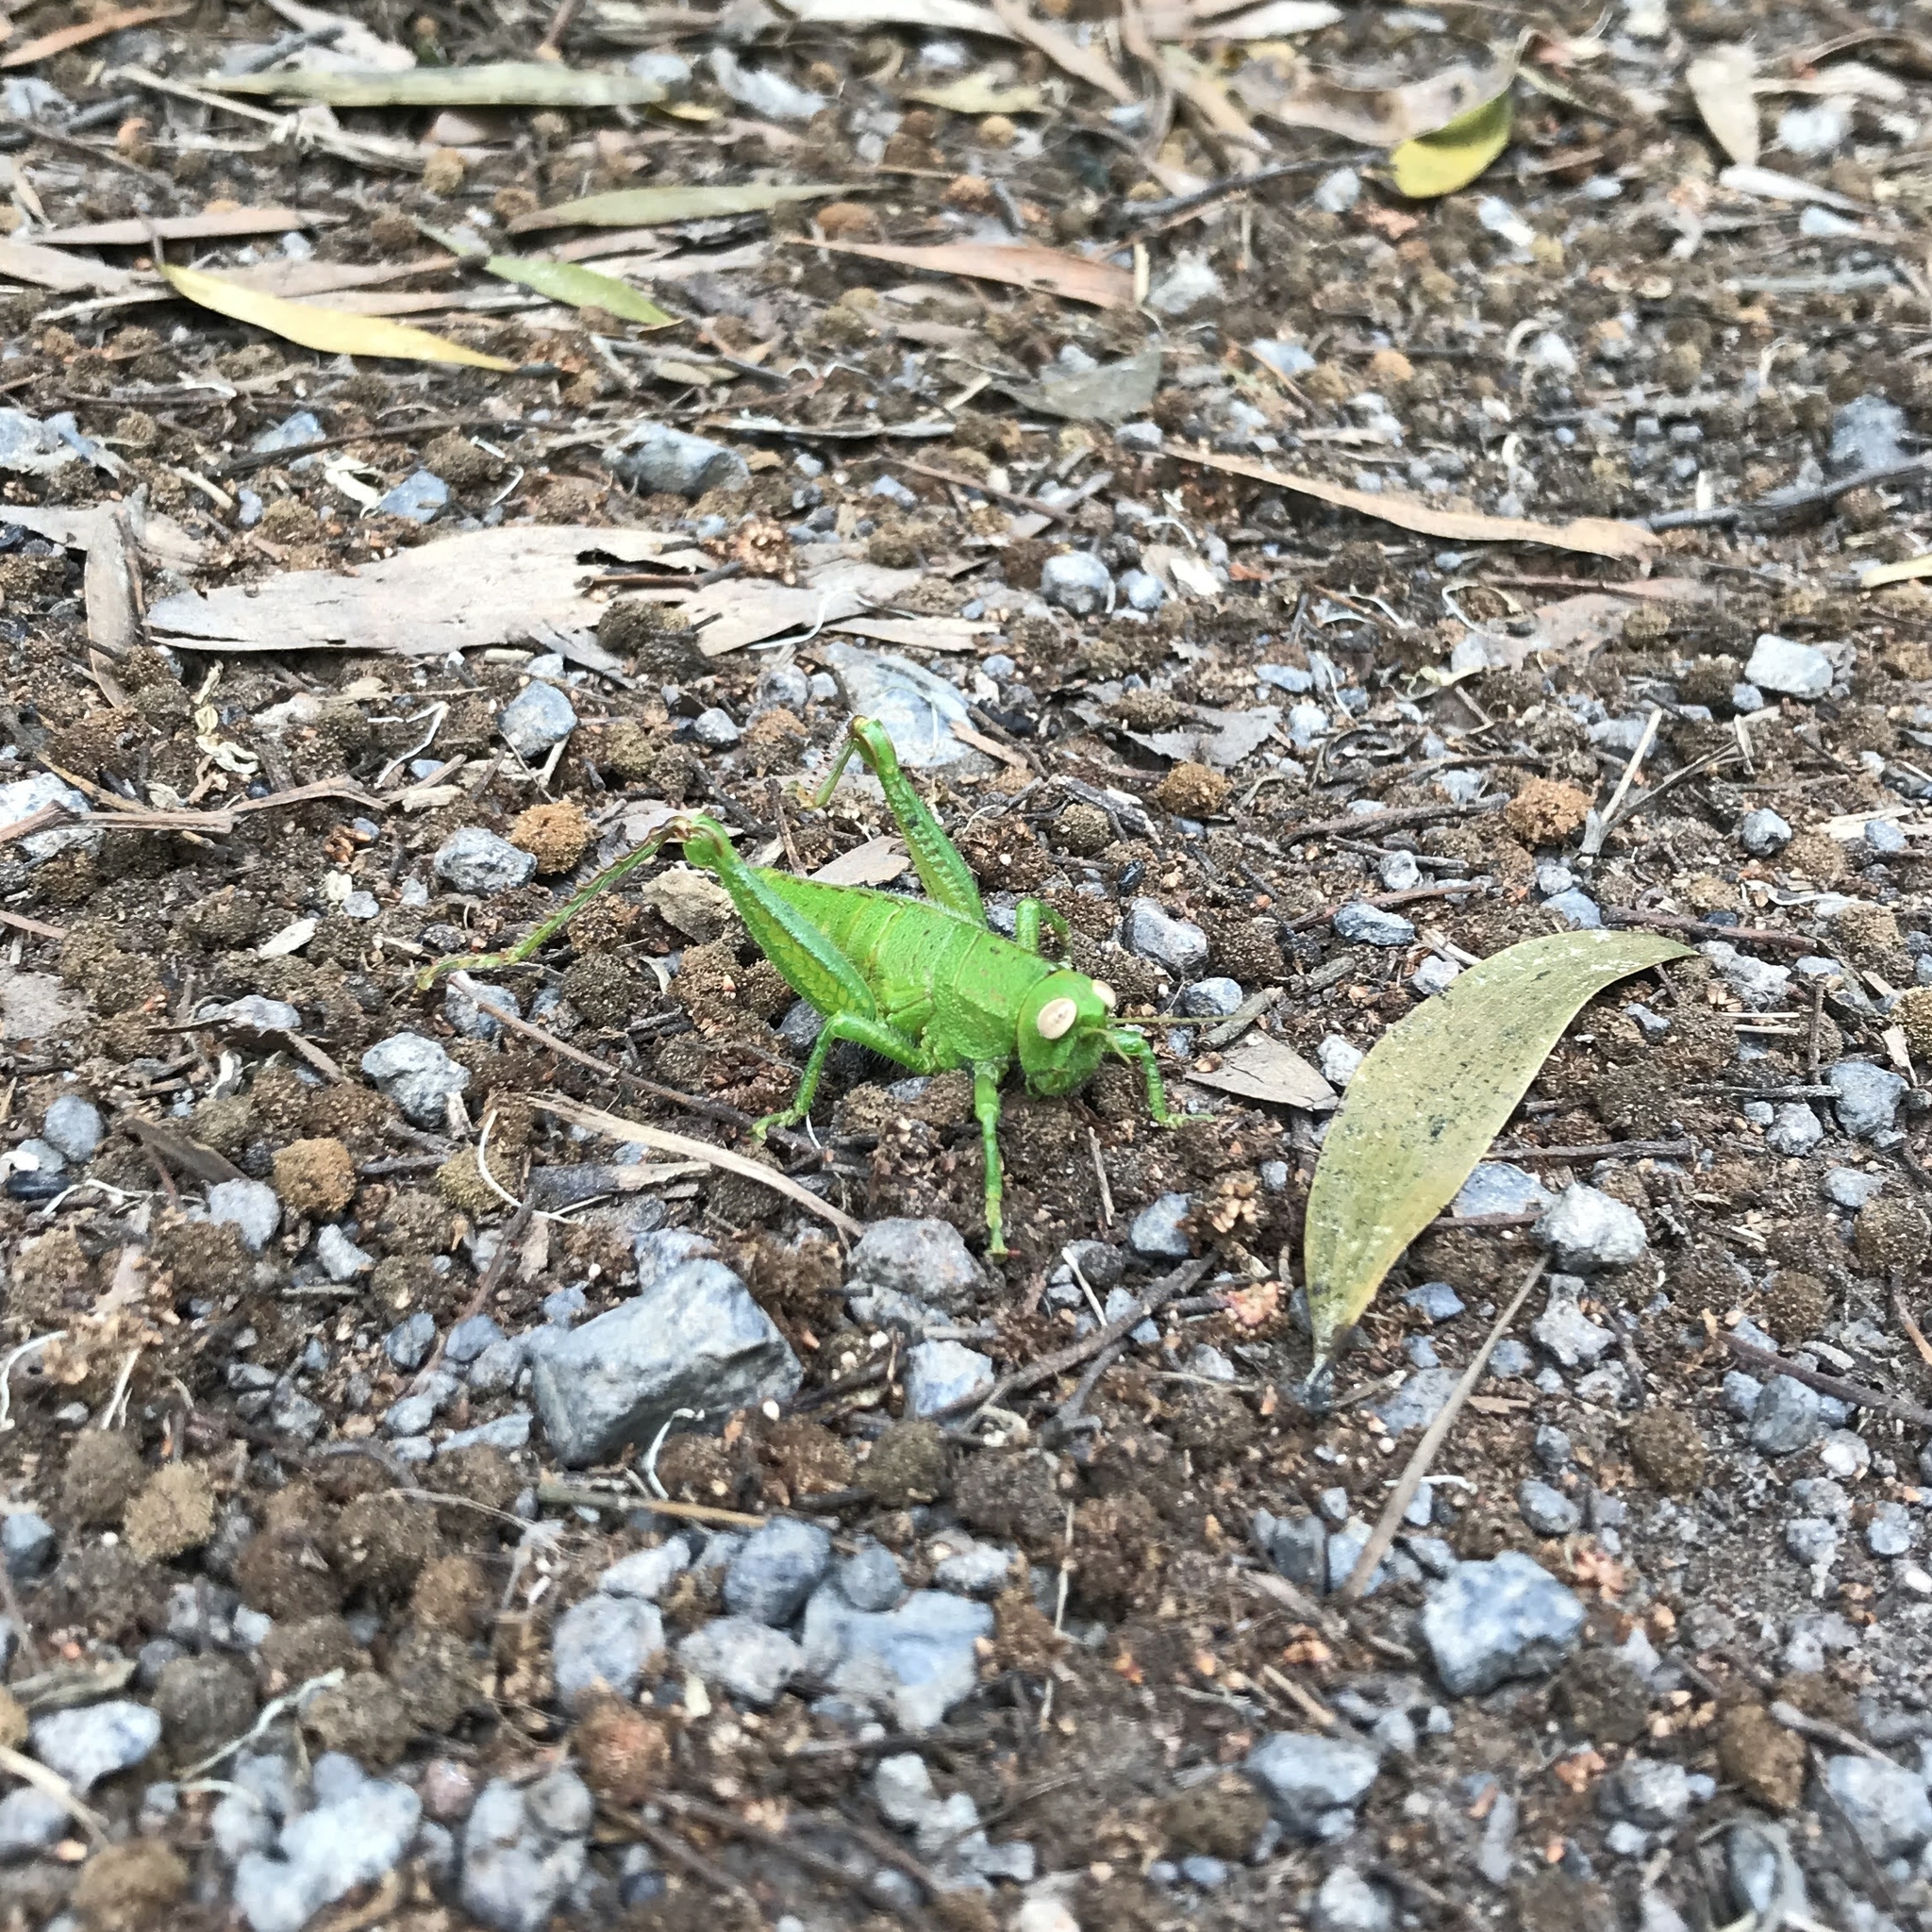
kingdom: Animalia
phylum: Arthropoda
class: Insecta
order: Orthoptera
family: Romaleidae
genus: Antandrus
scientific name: Antandrus viridis
